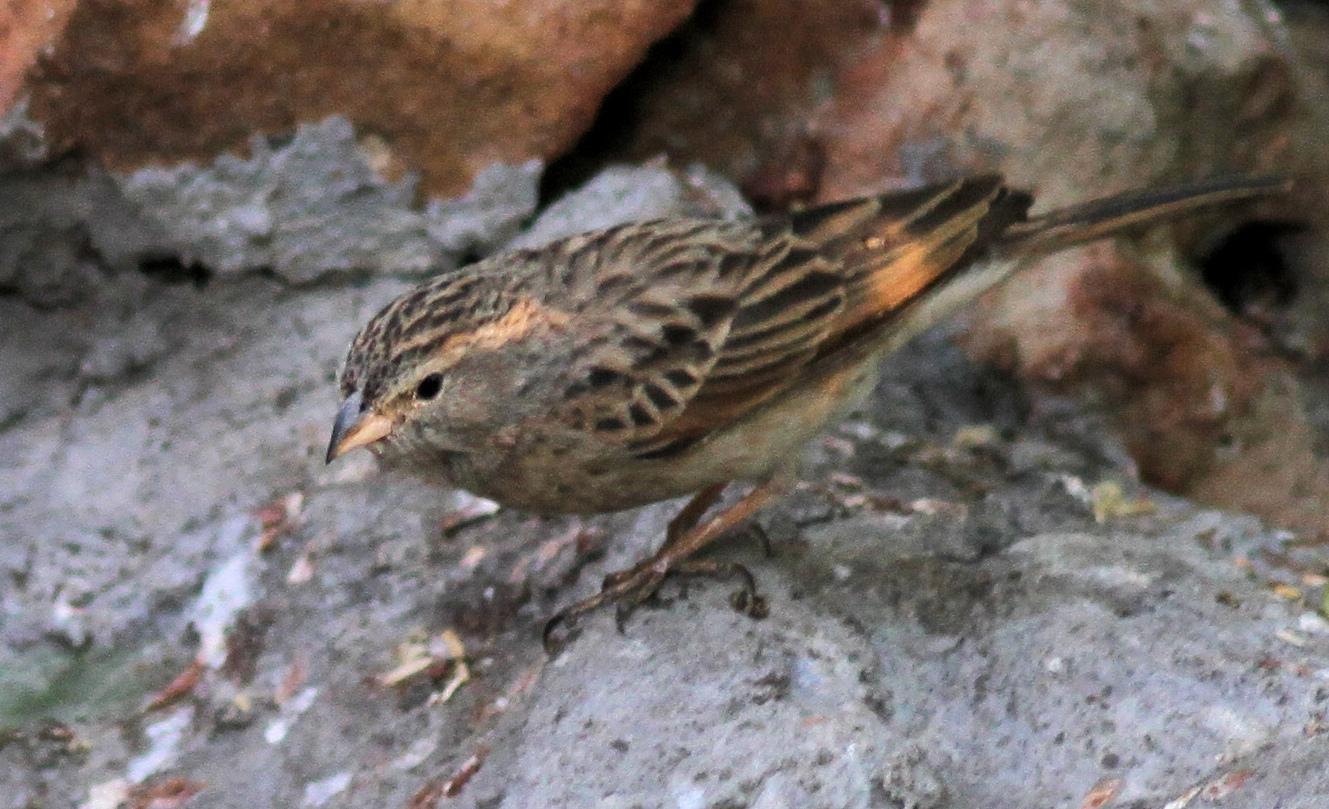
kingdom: Animalia
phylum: Chordata
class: Aves
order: Passeriformes
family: Emberizidae
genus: Emberiza
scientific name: Emberiza impetuani
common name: Lark-like bunting
